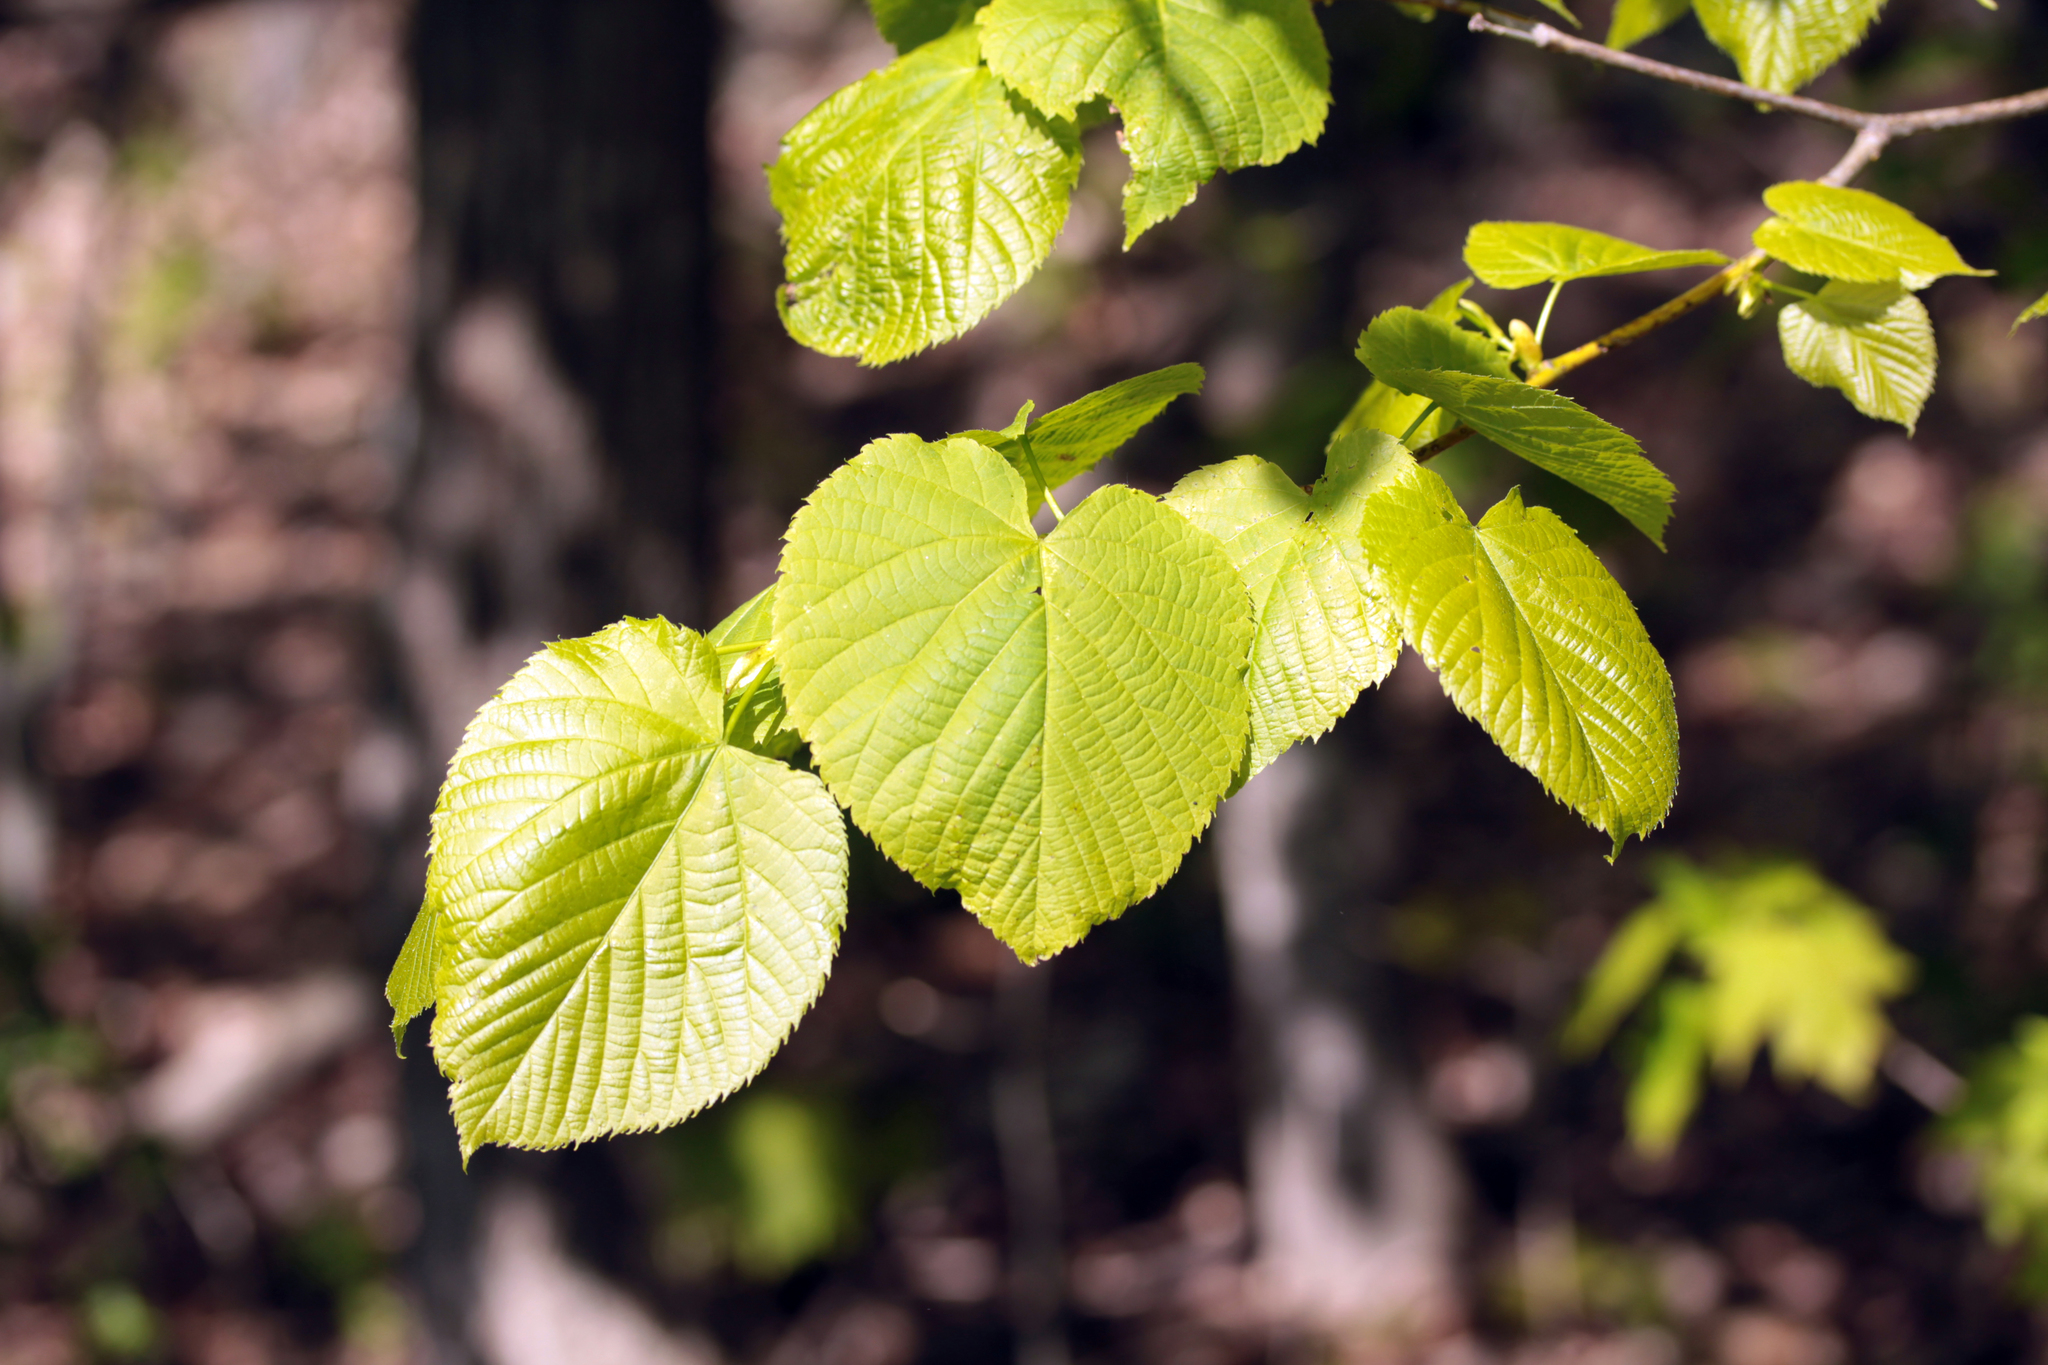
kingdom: Plantae
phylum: Tracheophyta
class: Magnoliopsida
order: Malvales
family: Malvaceae
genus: Tilia
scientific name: Tilia americana
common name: Basswood
